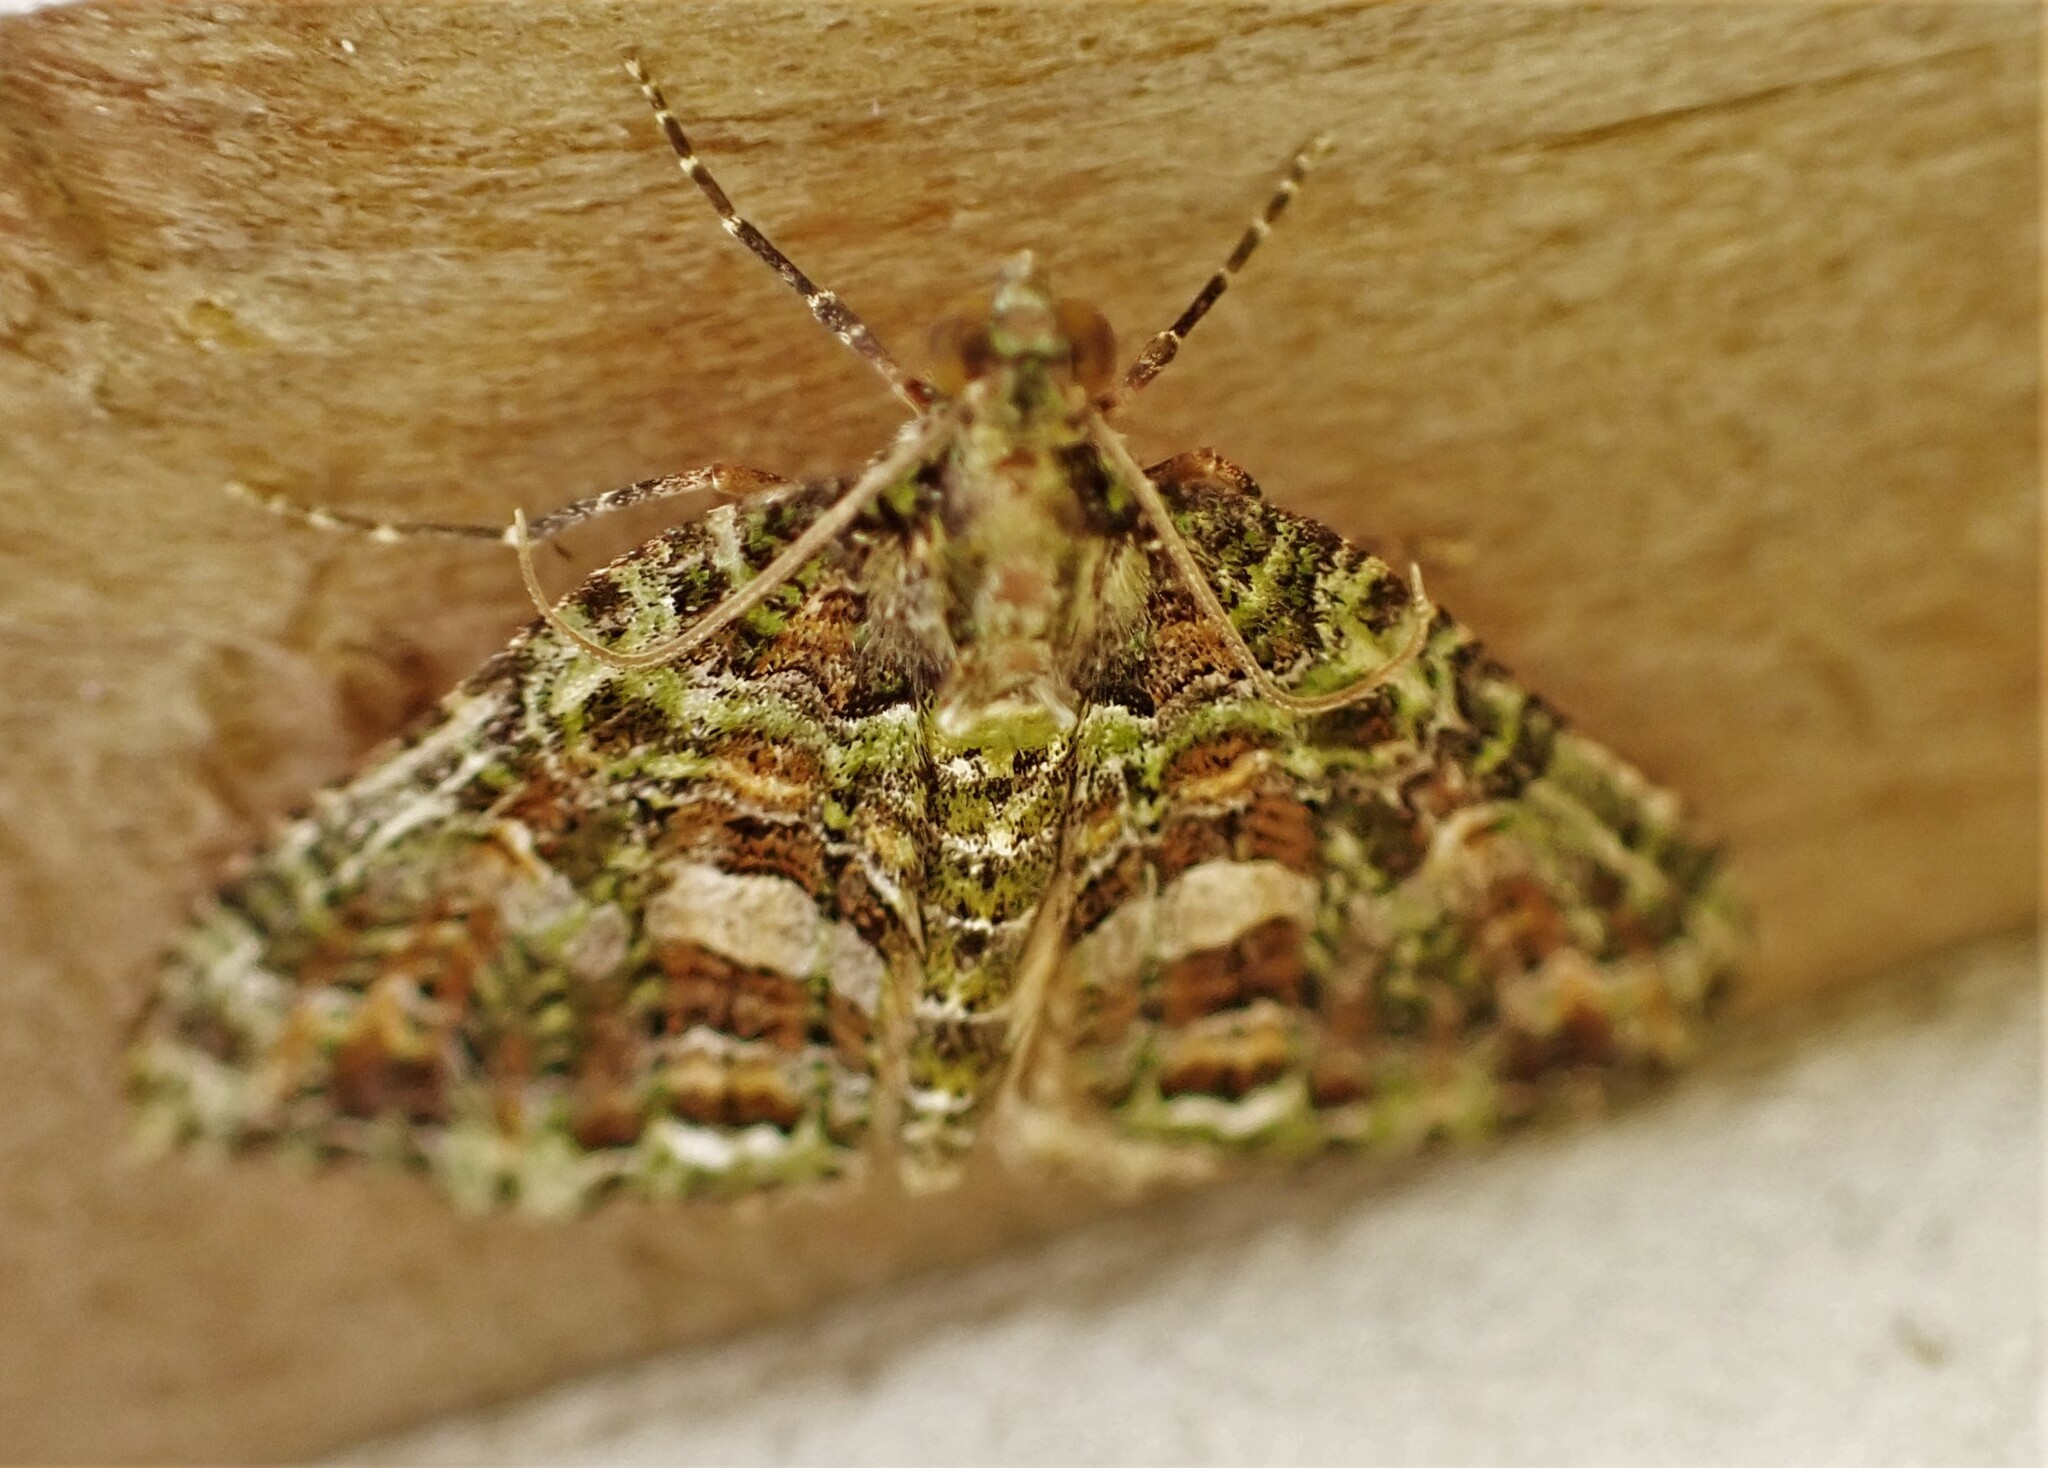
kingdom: Animalia
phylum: Arthropoda
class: Insecta
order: Lepidoptera
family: Geometridae
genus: Austrocidaria
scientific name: Austrocidaria similata
